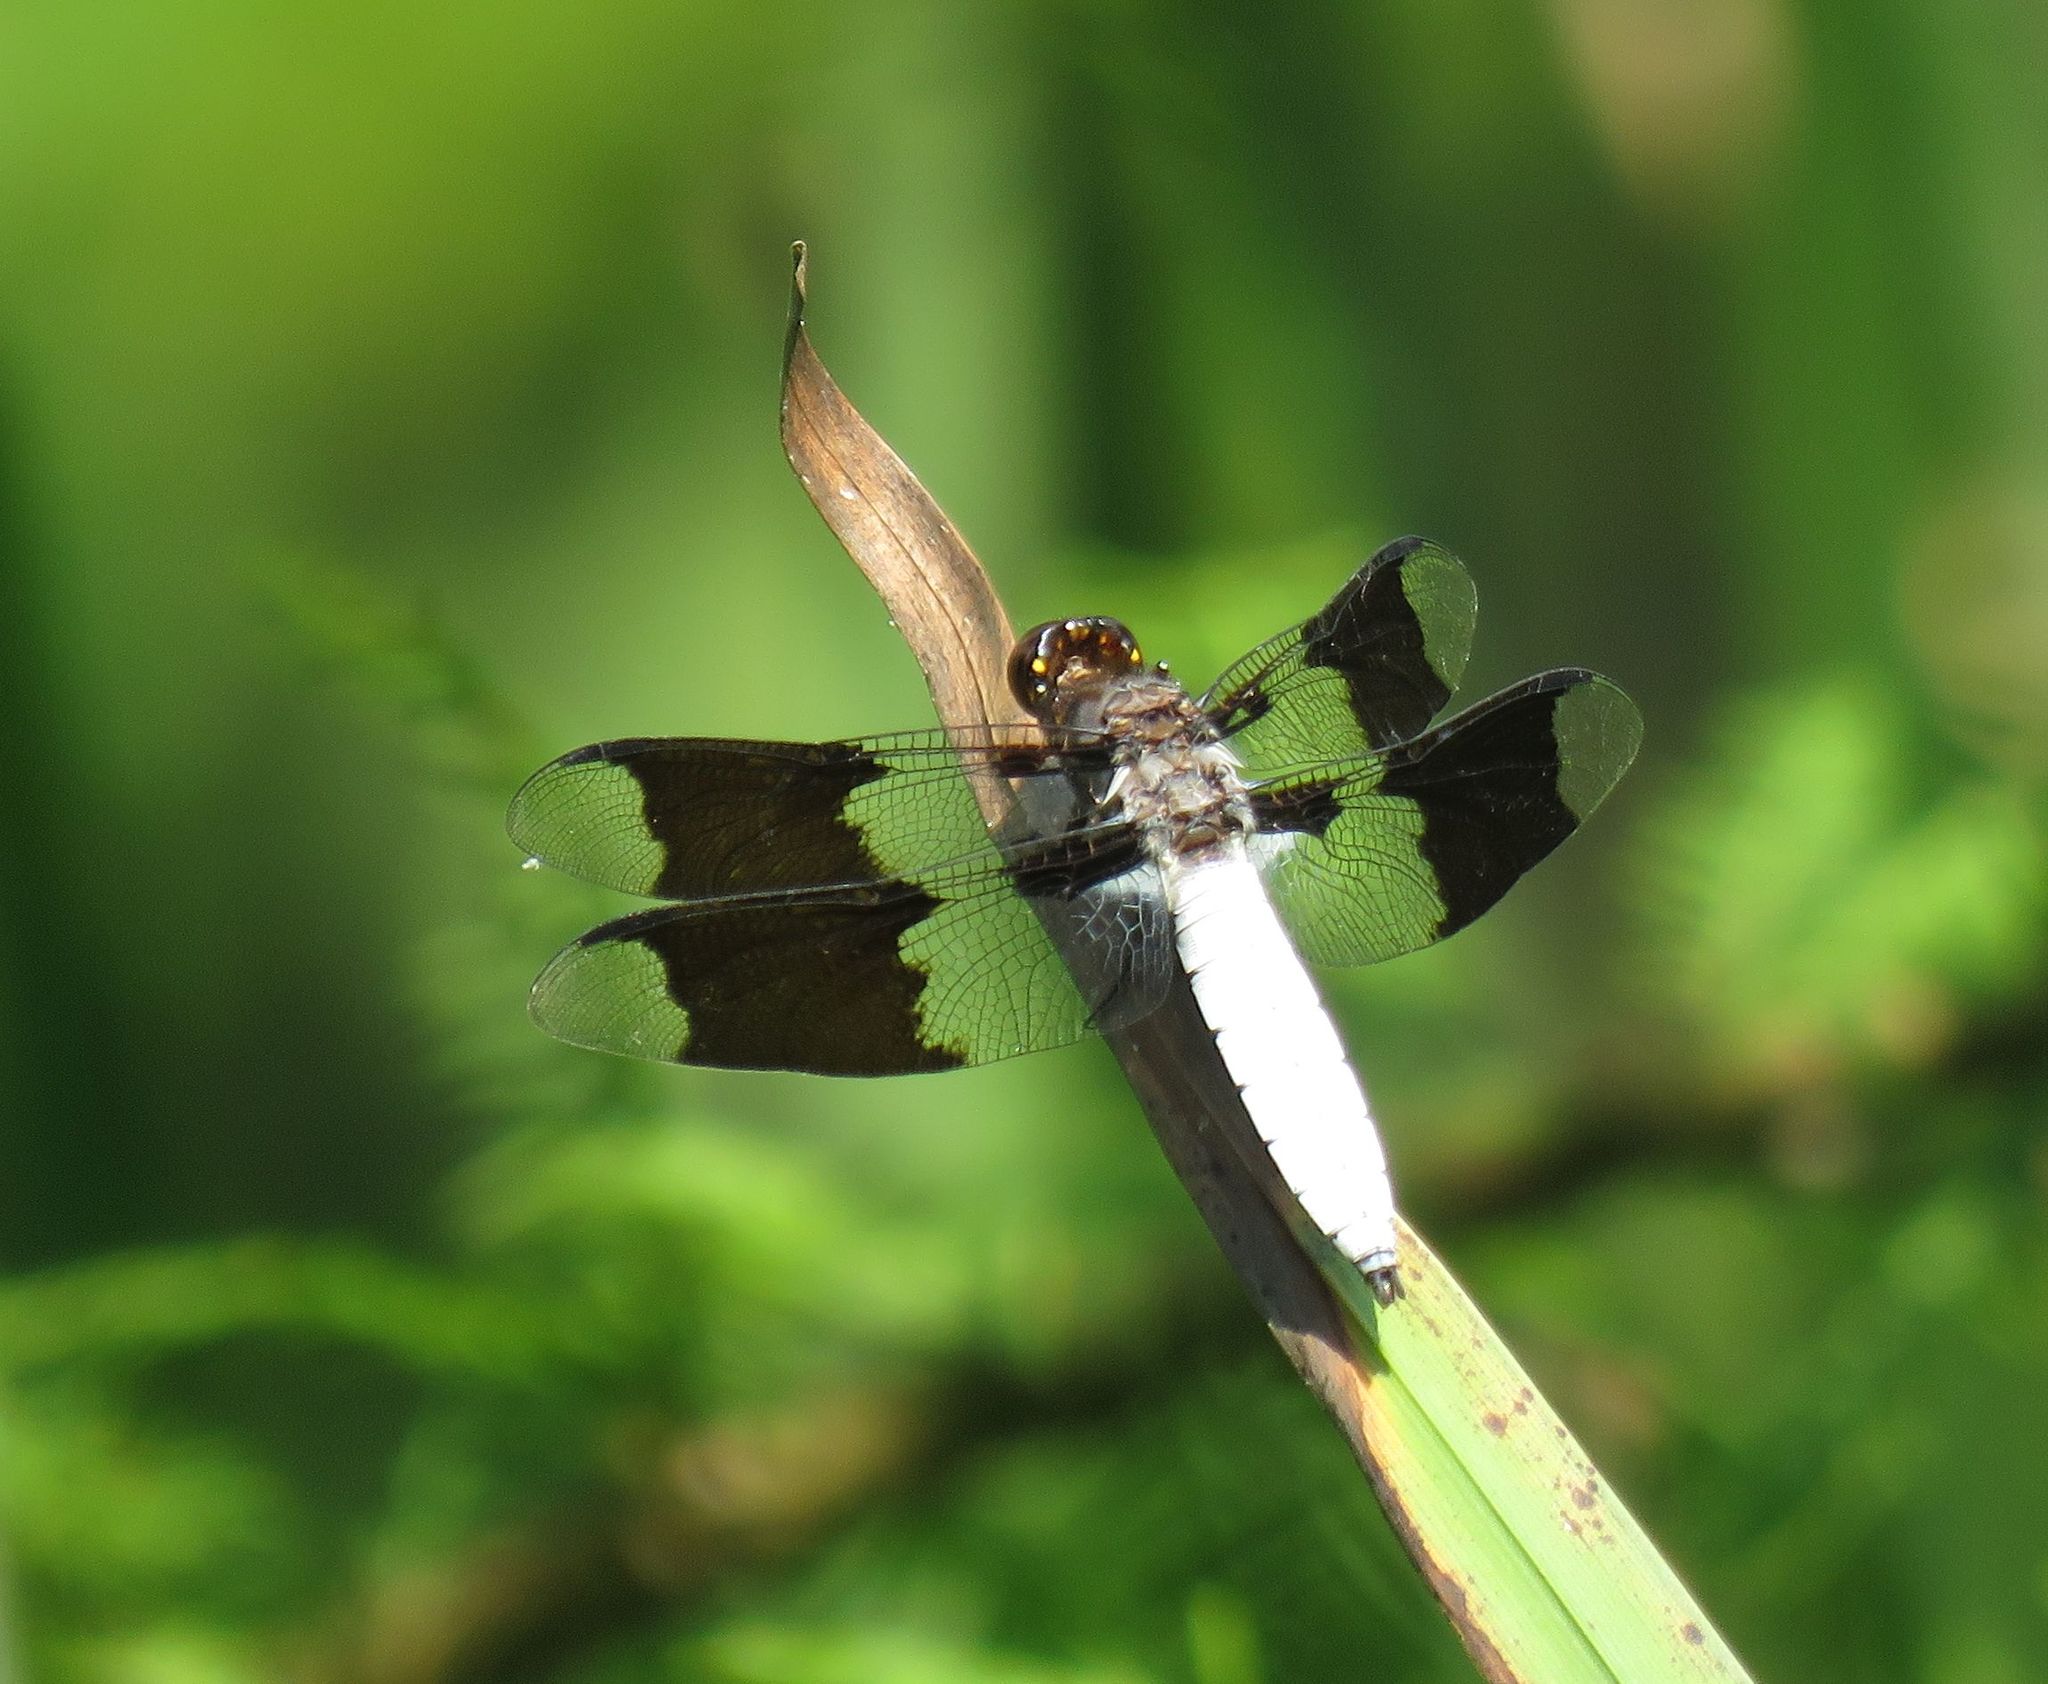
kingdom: Animalia
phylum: Arthropoda
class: Insecta
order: Odonata
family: Libellulidae
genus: Plathemis
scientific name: Plathemis lydia
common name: Common whitetail
